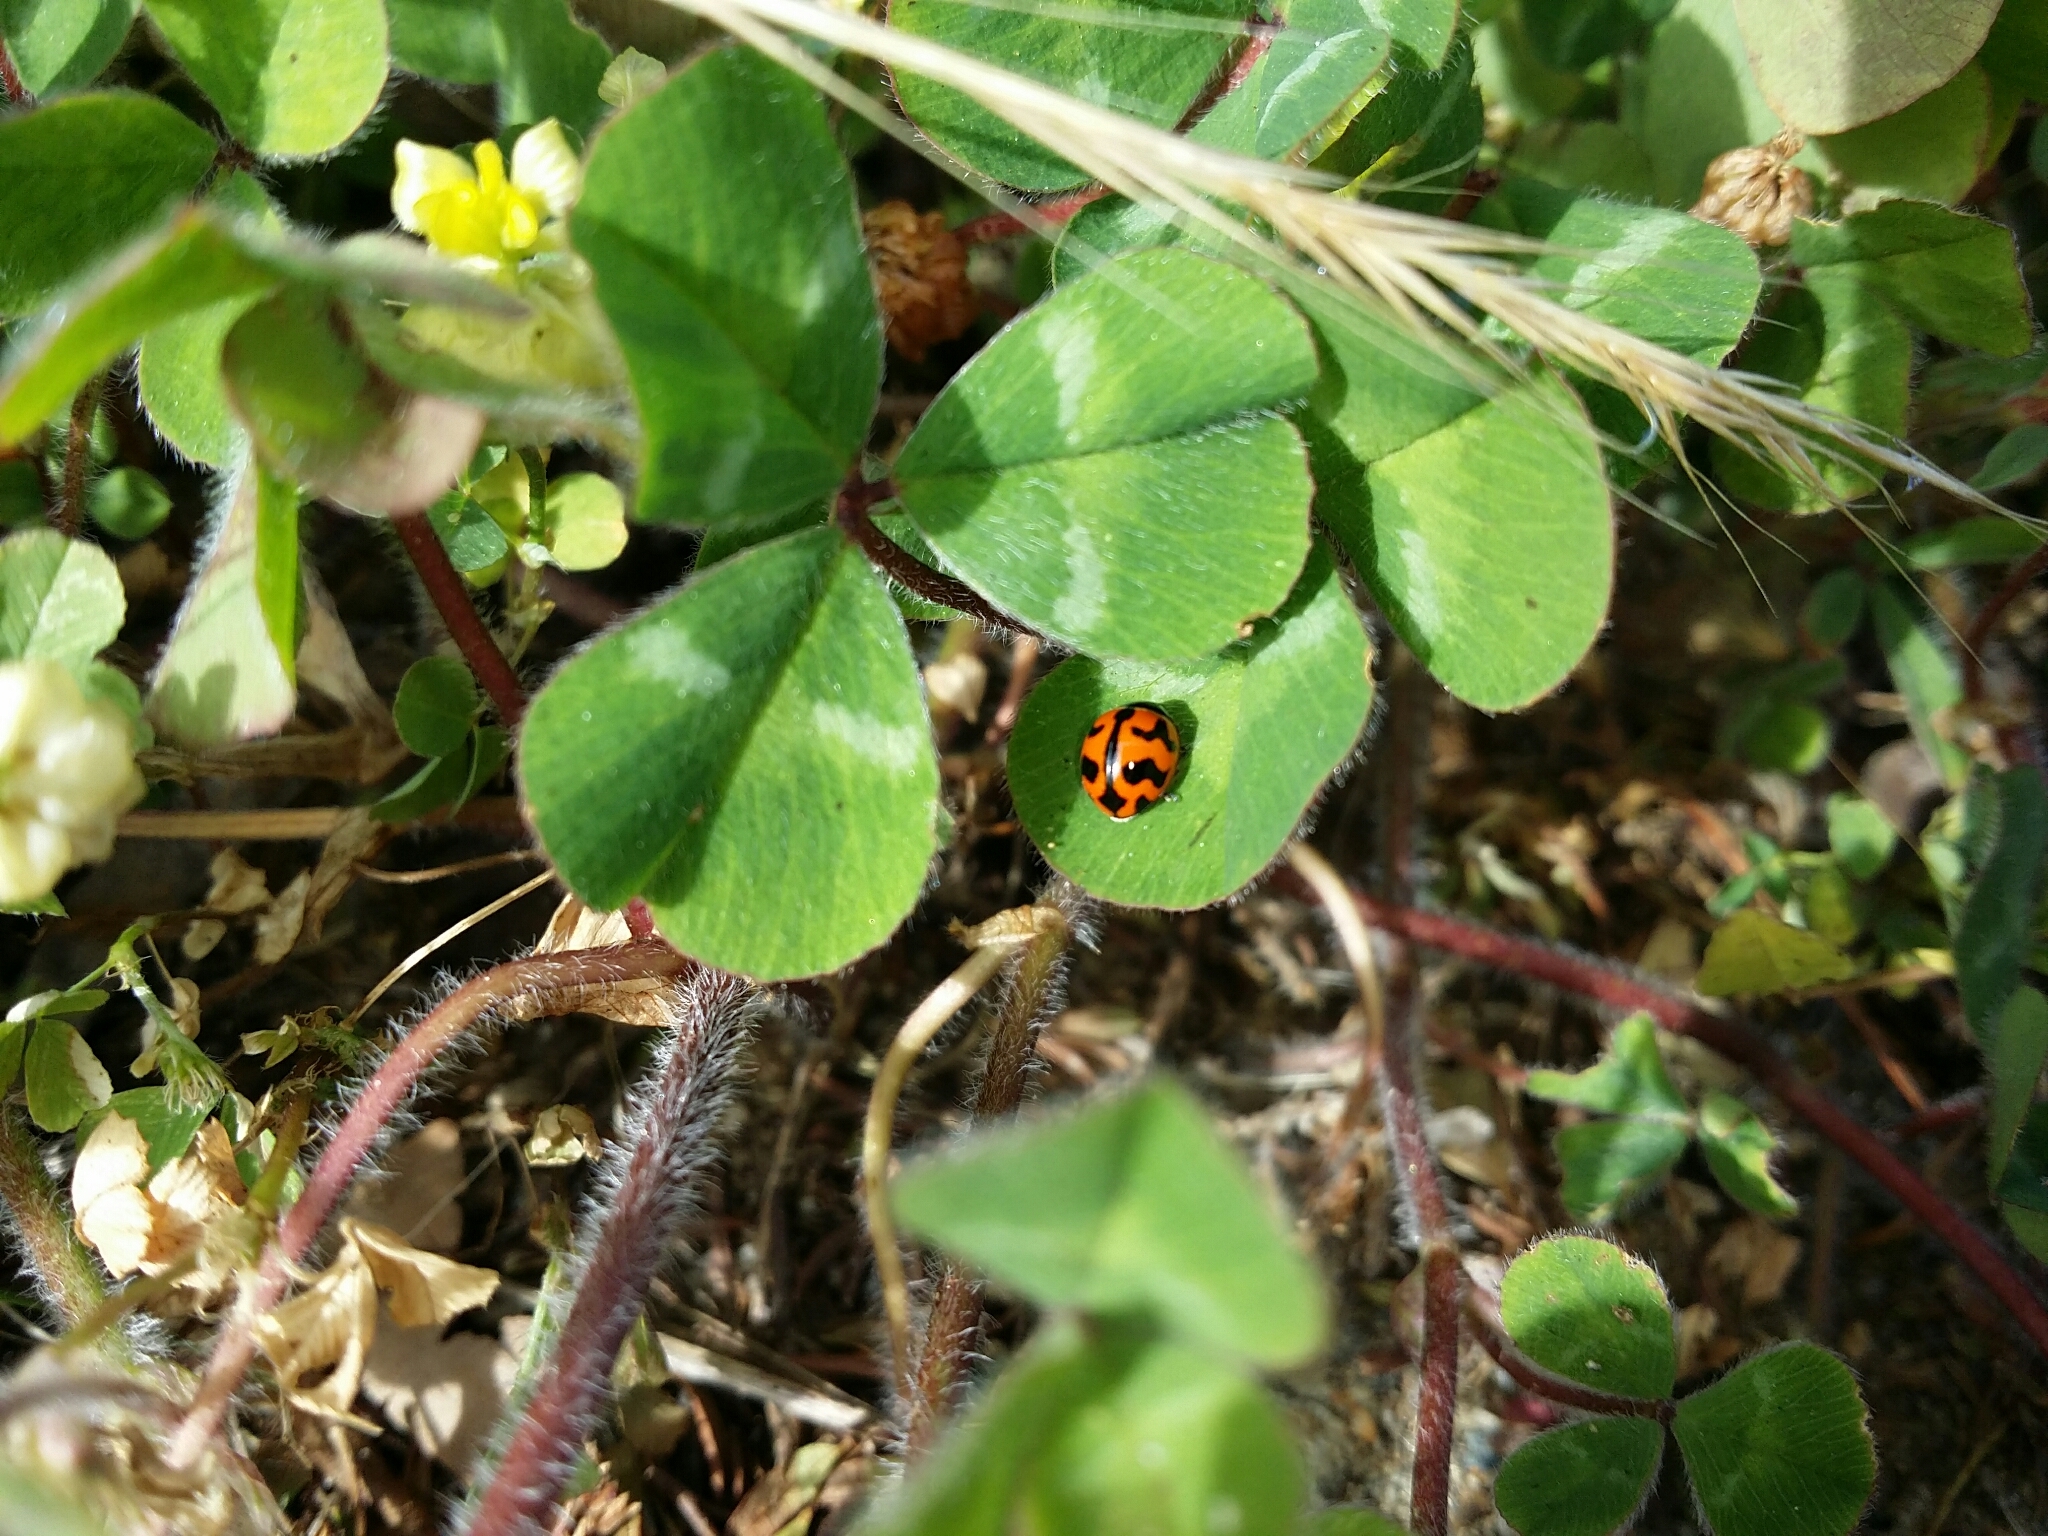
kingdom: Animalia
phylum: Arthropoda
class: Insecta
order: Coleoptera
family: Coccinellidae
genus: Coccinella
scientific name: Coccinella transversalis
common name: Transverse lady beetle
